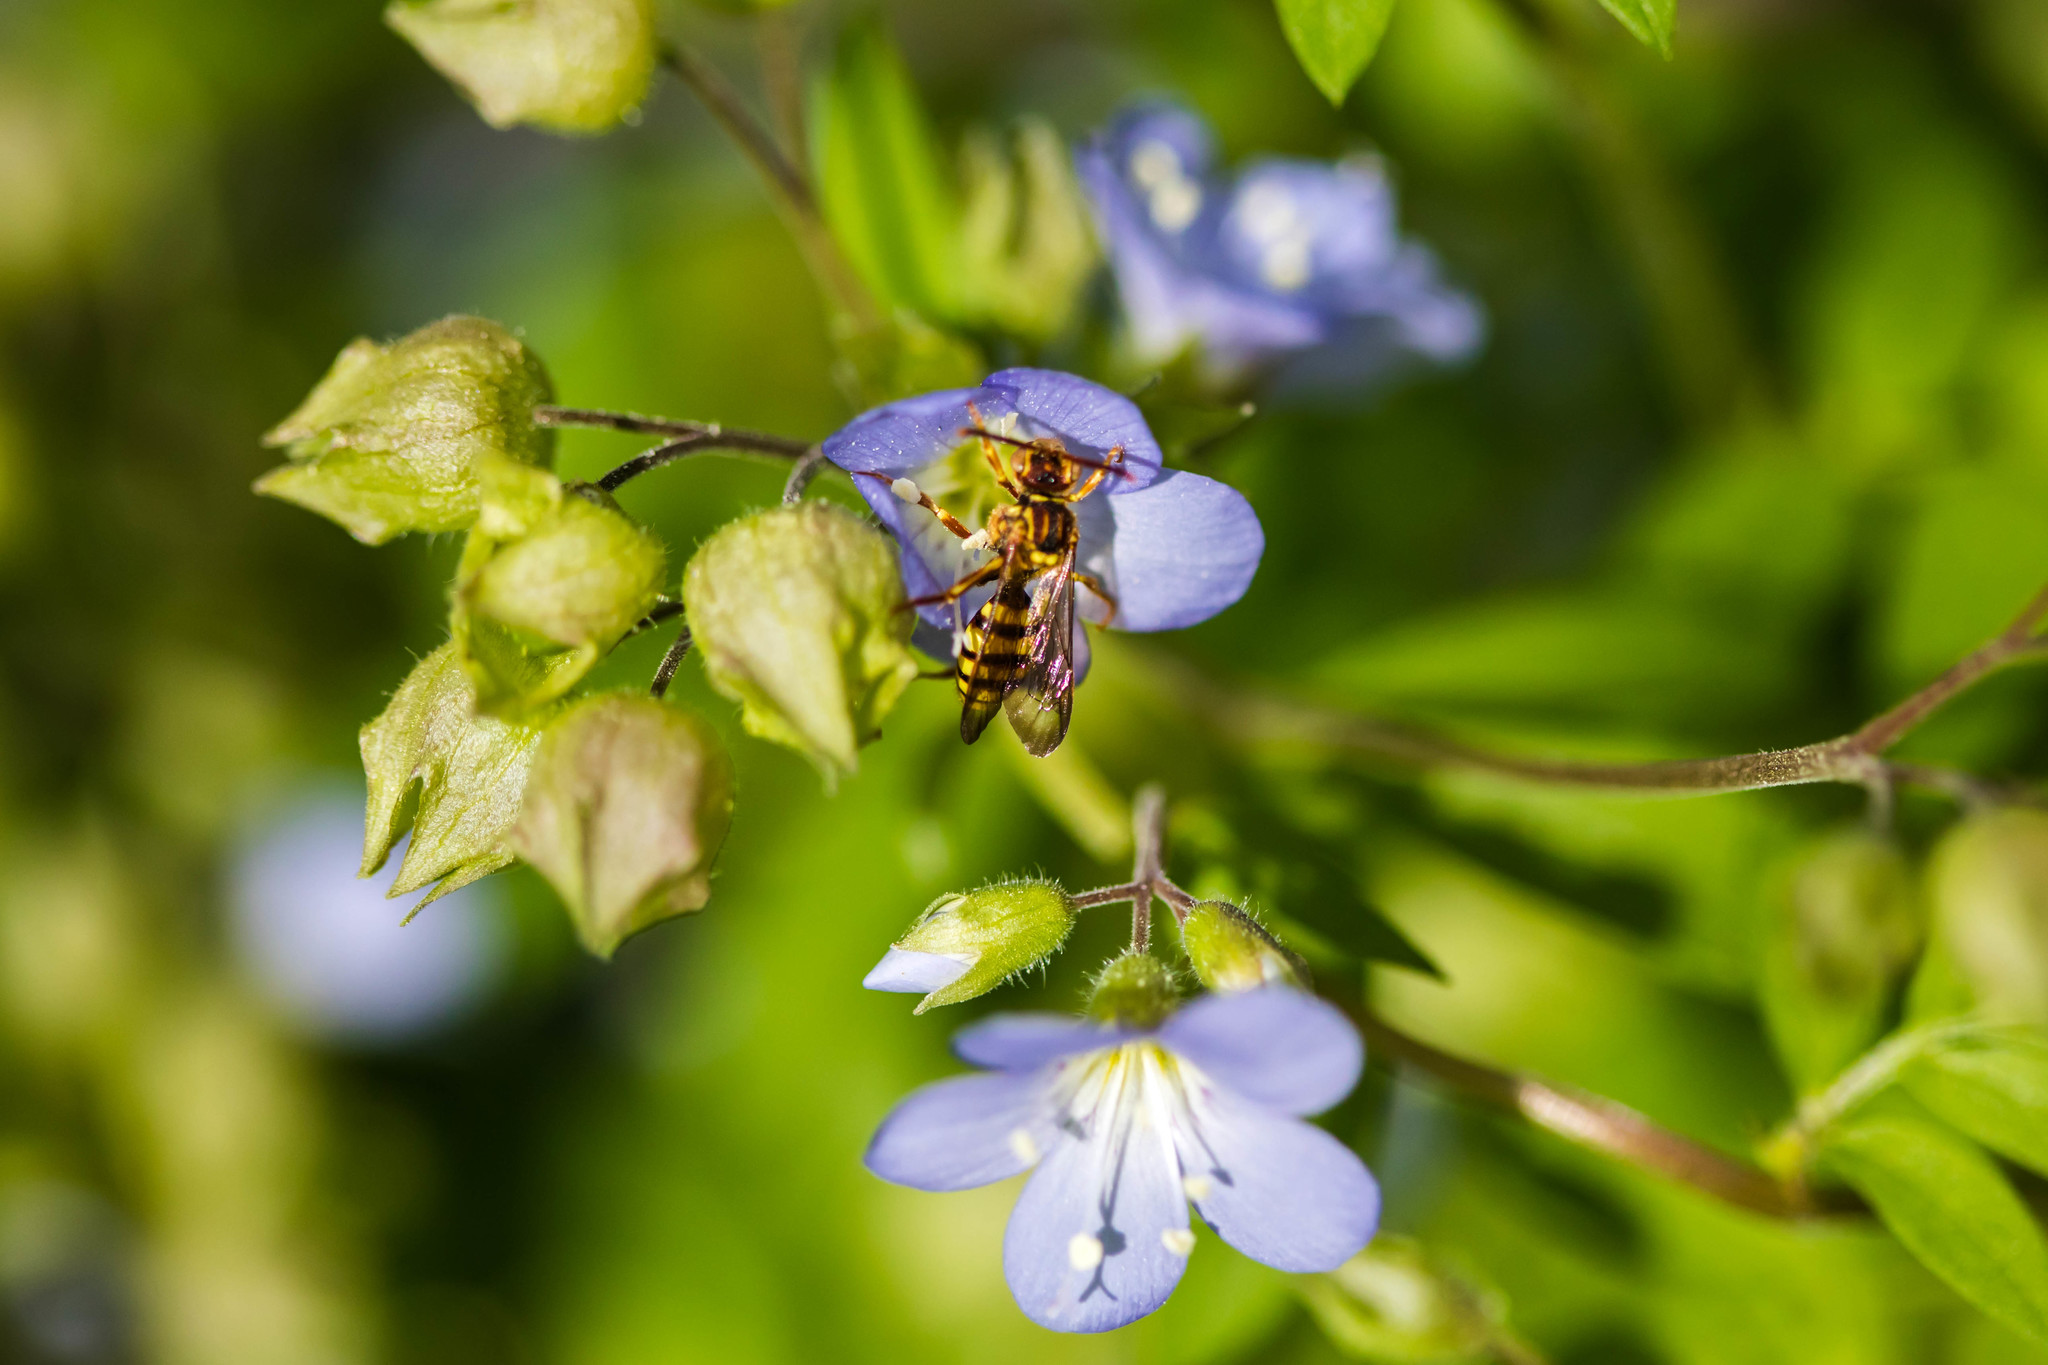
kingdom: Animalia
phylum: Arthropoda
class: Insecta
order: Hymenoptera
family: Apidae
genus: Nomada
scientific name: Nomada
